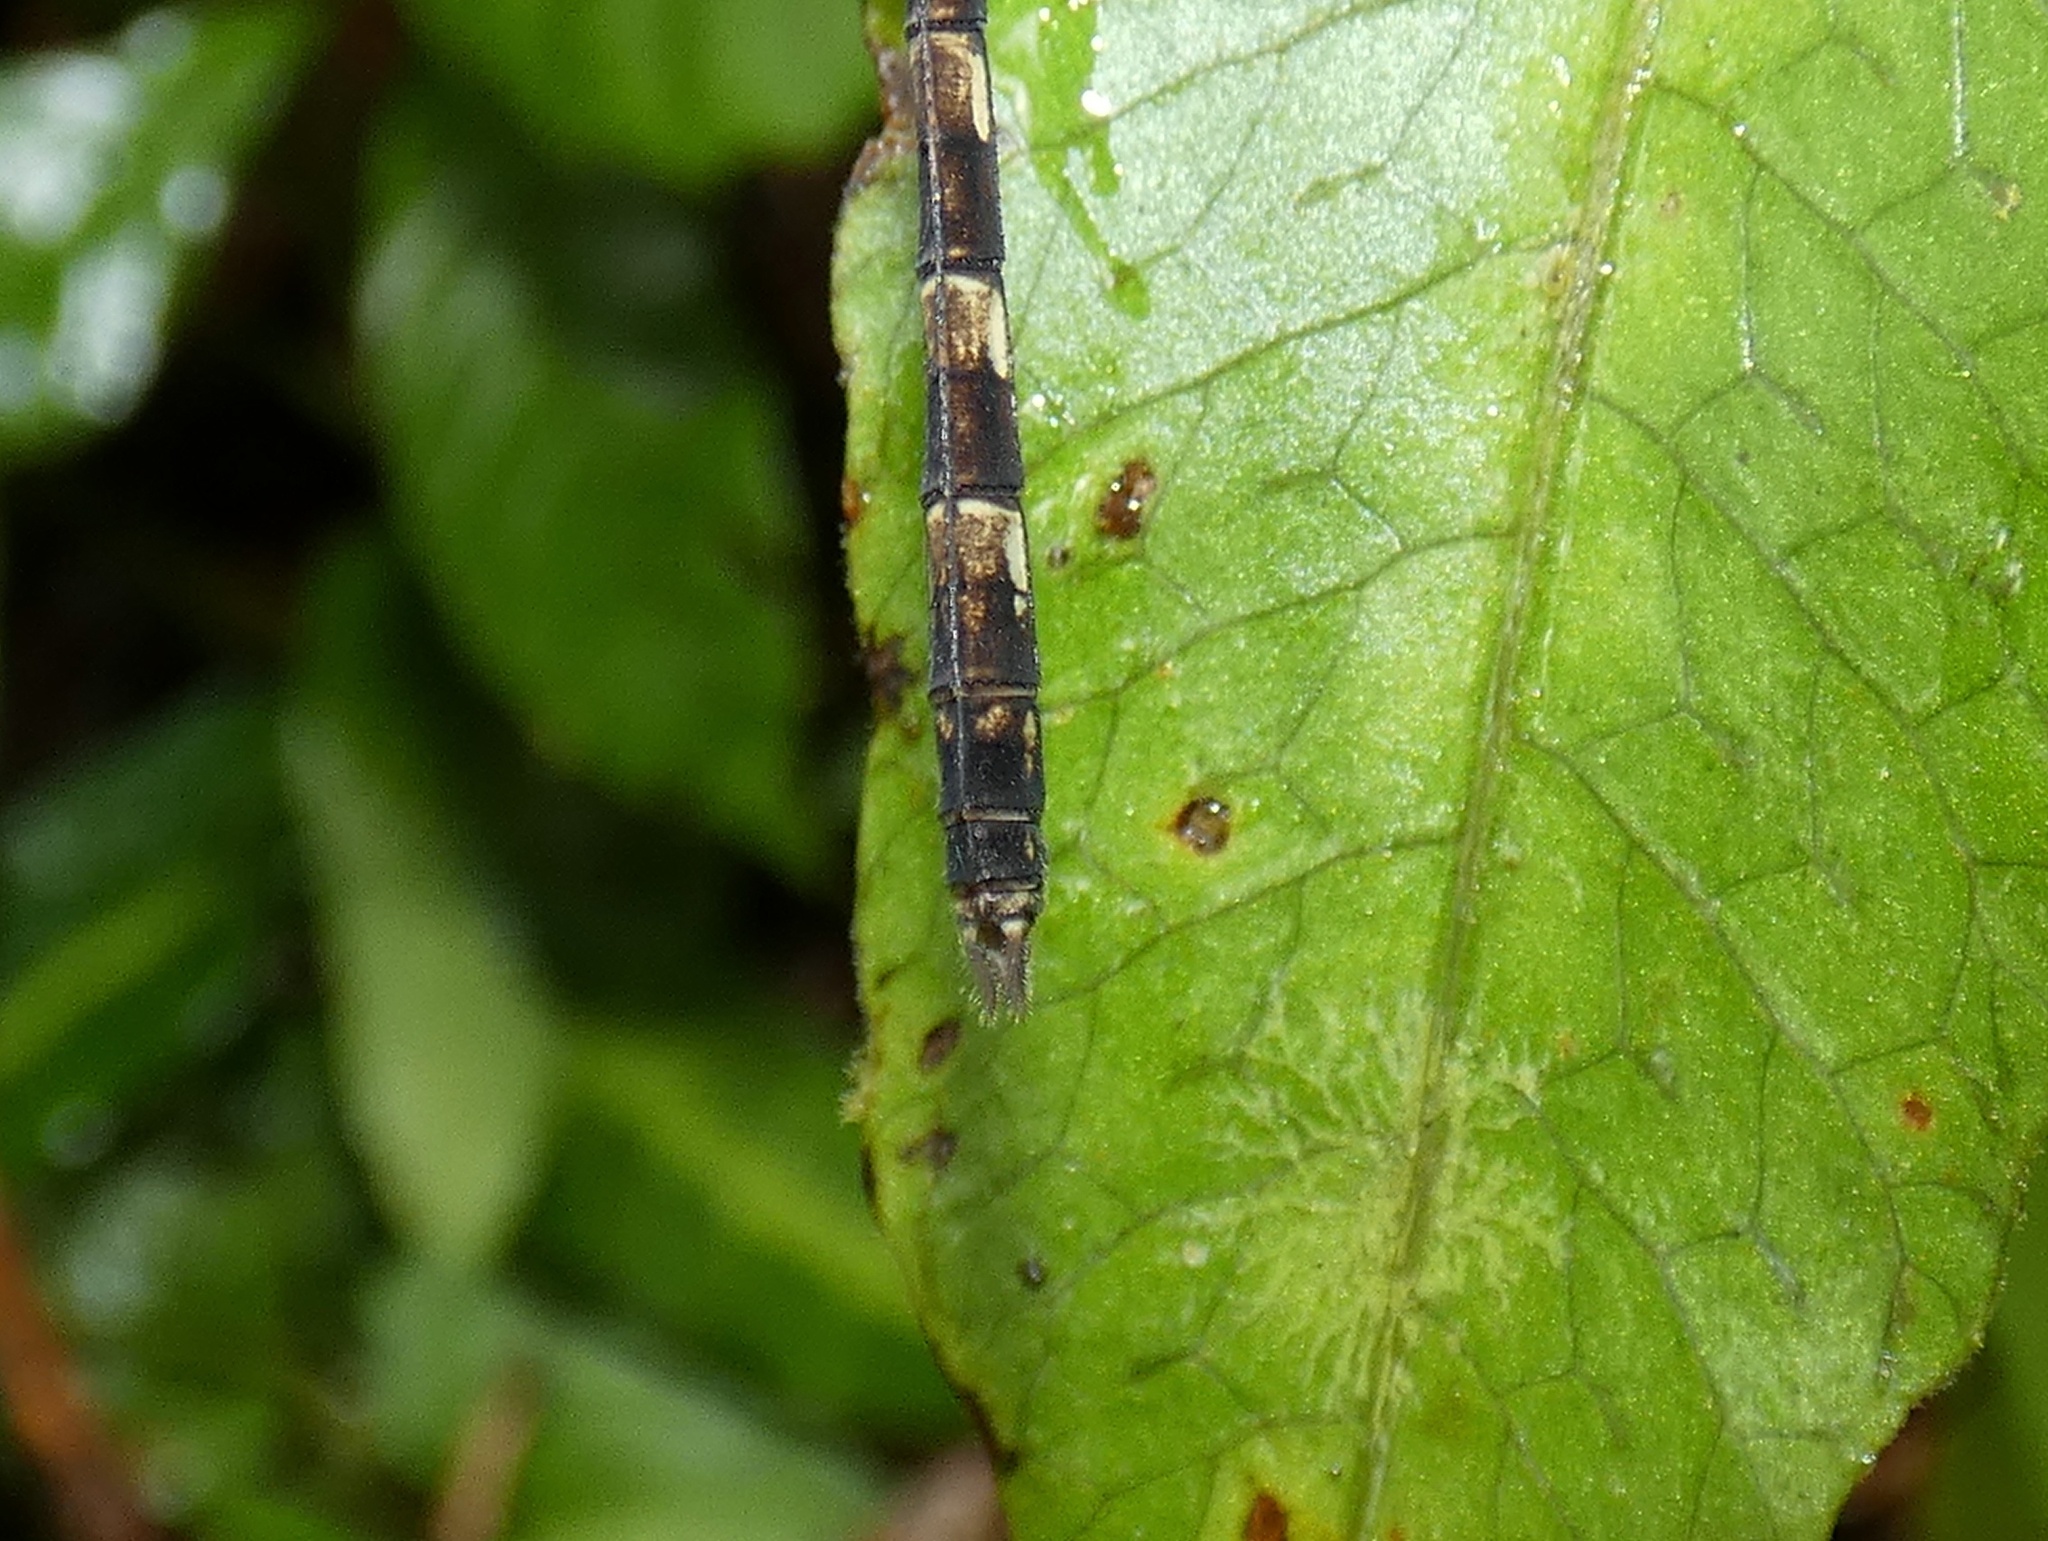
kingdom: Animalia
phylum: Arthropoda
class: Insecta
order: Odonata
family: Libellulidae
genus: Uracis
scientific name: Uracis imbuta
